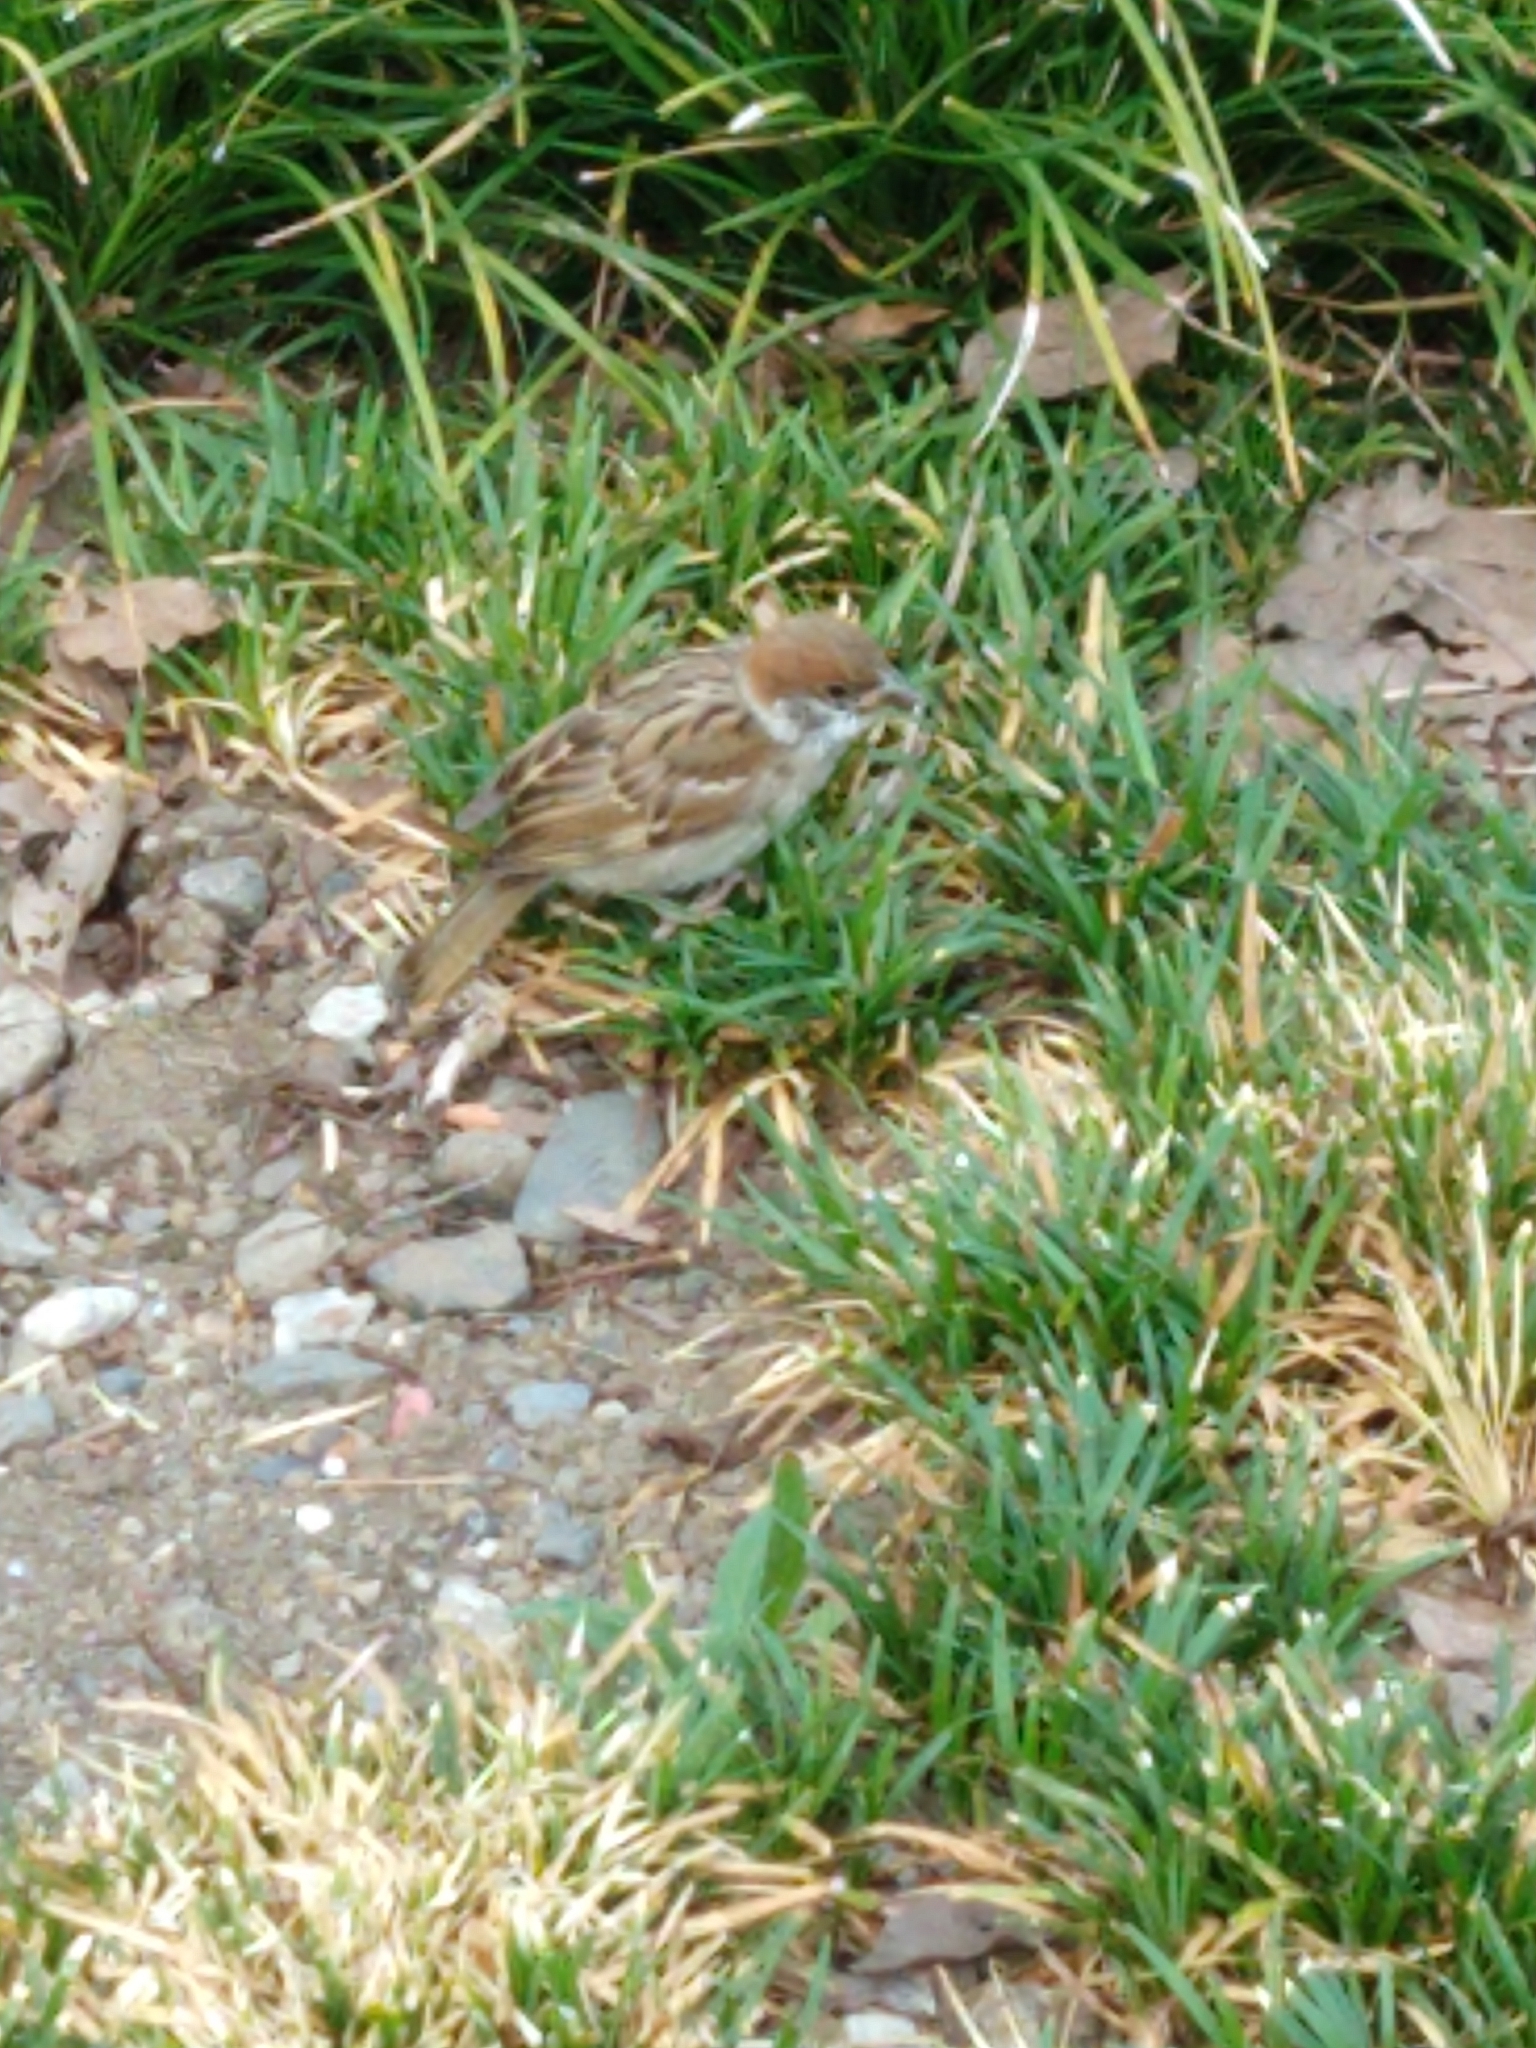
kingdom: Animalia
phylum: Chordata
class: Aves
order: Passeriformes
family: Passeridae
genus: Passer
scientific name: Passer montanus
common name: Eurasian tree sparrow
